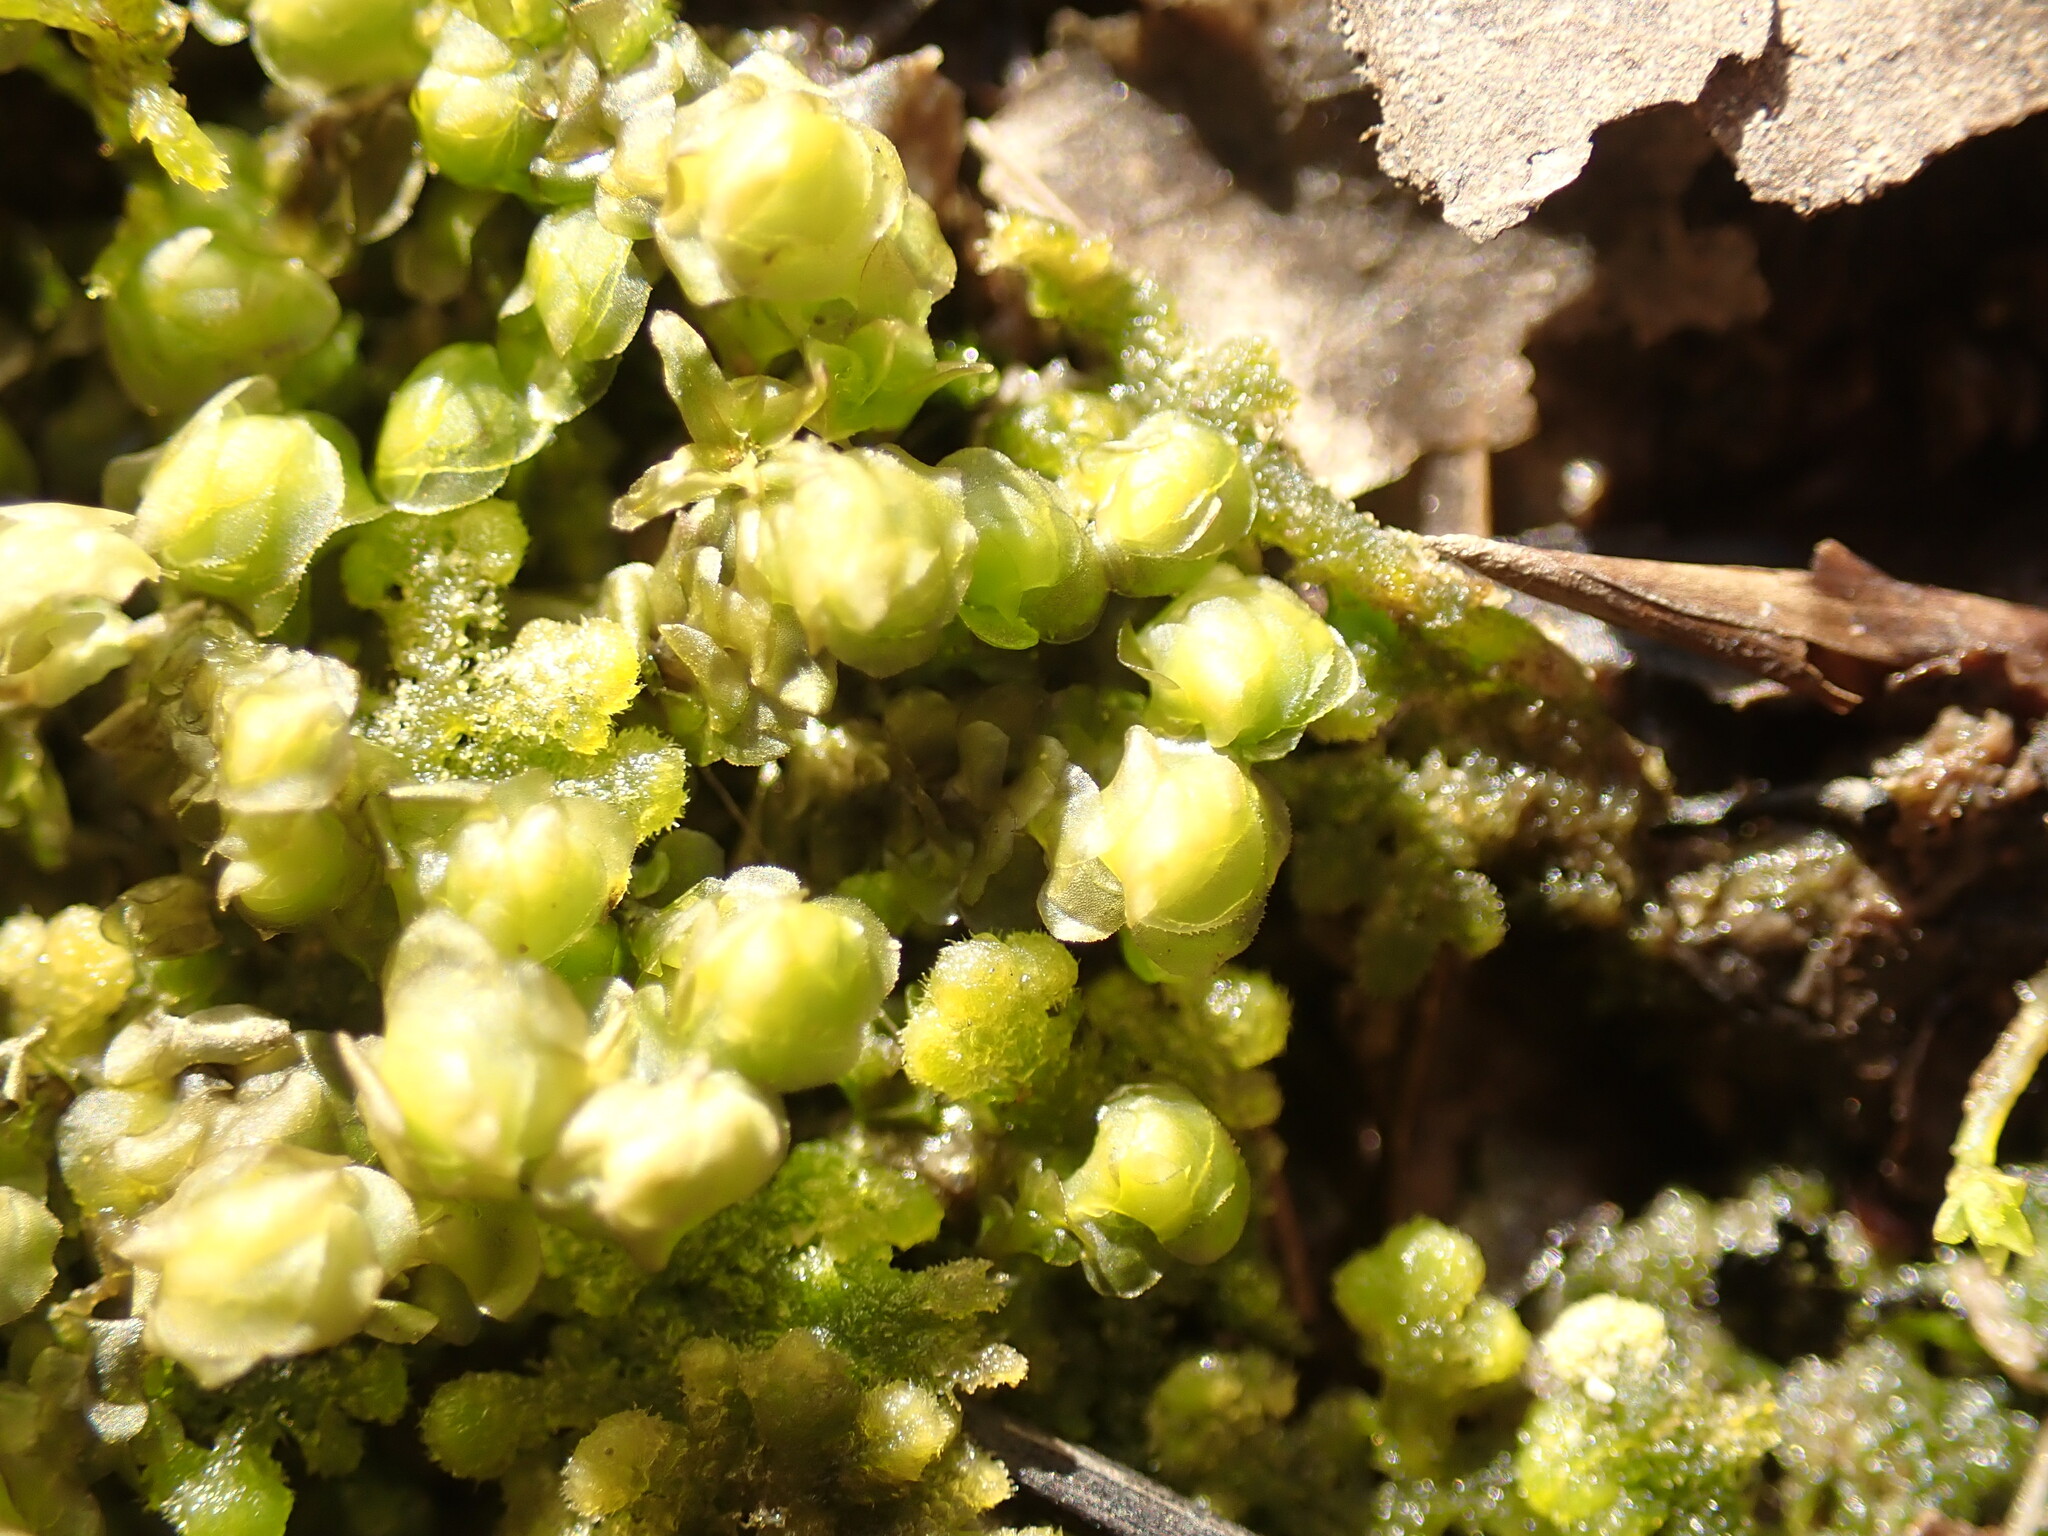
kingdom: Plantae
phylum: Marchantiophyta
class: Jungermanniopsida
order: Jungermanniales
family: Scapaniaceae
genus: Scapania
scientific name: Scapania undulata
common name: Water earwort
